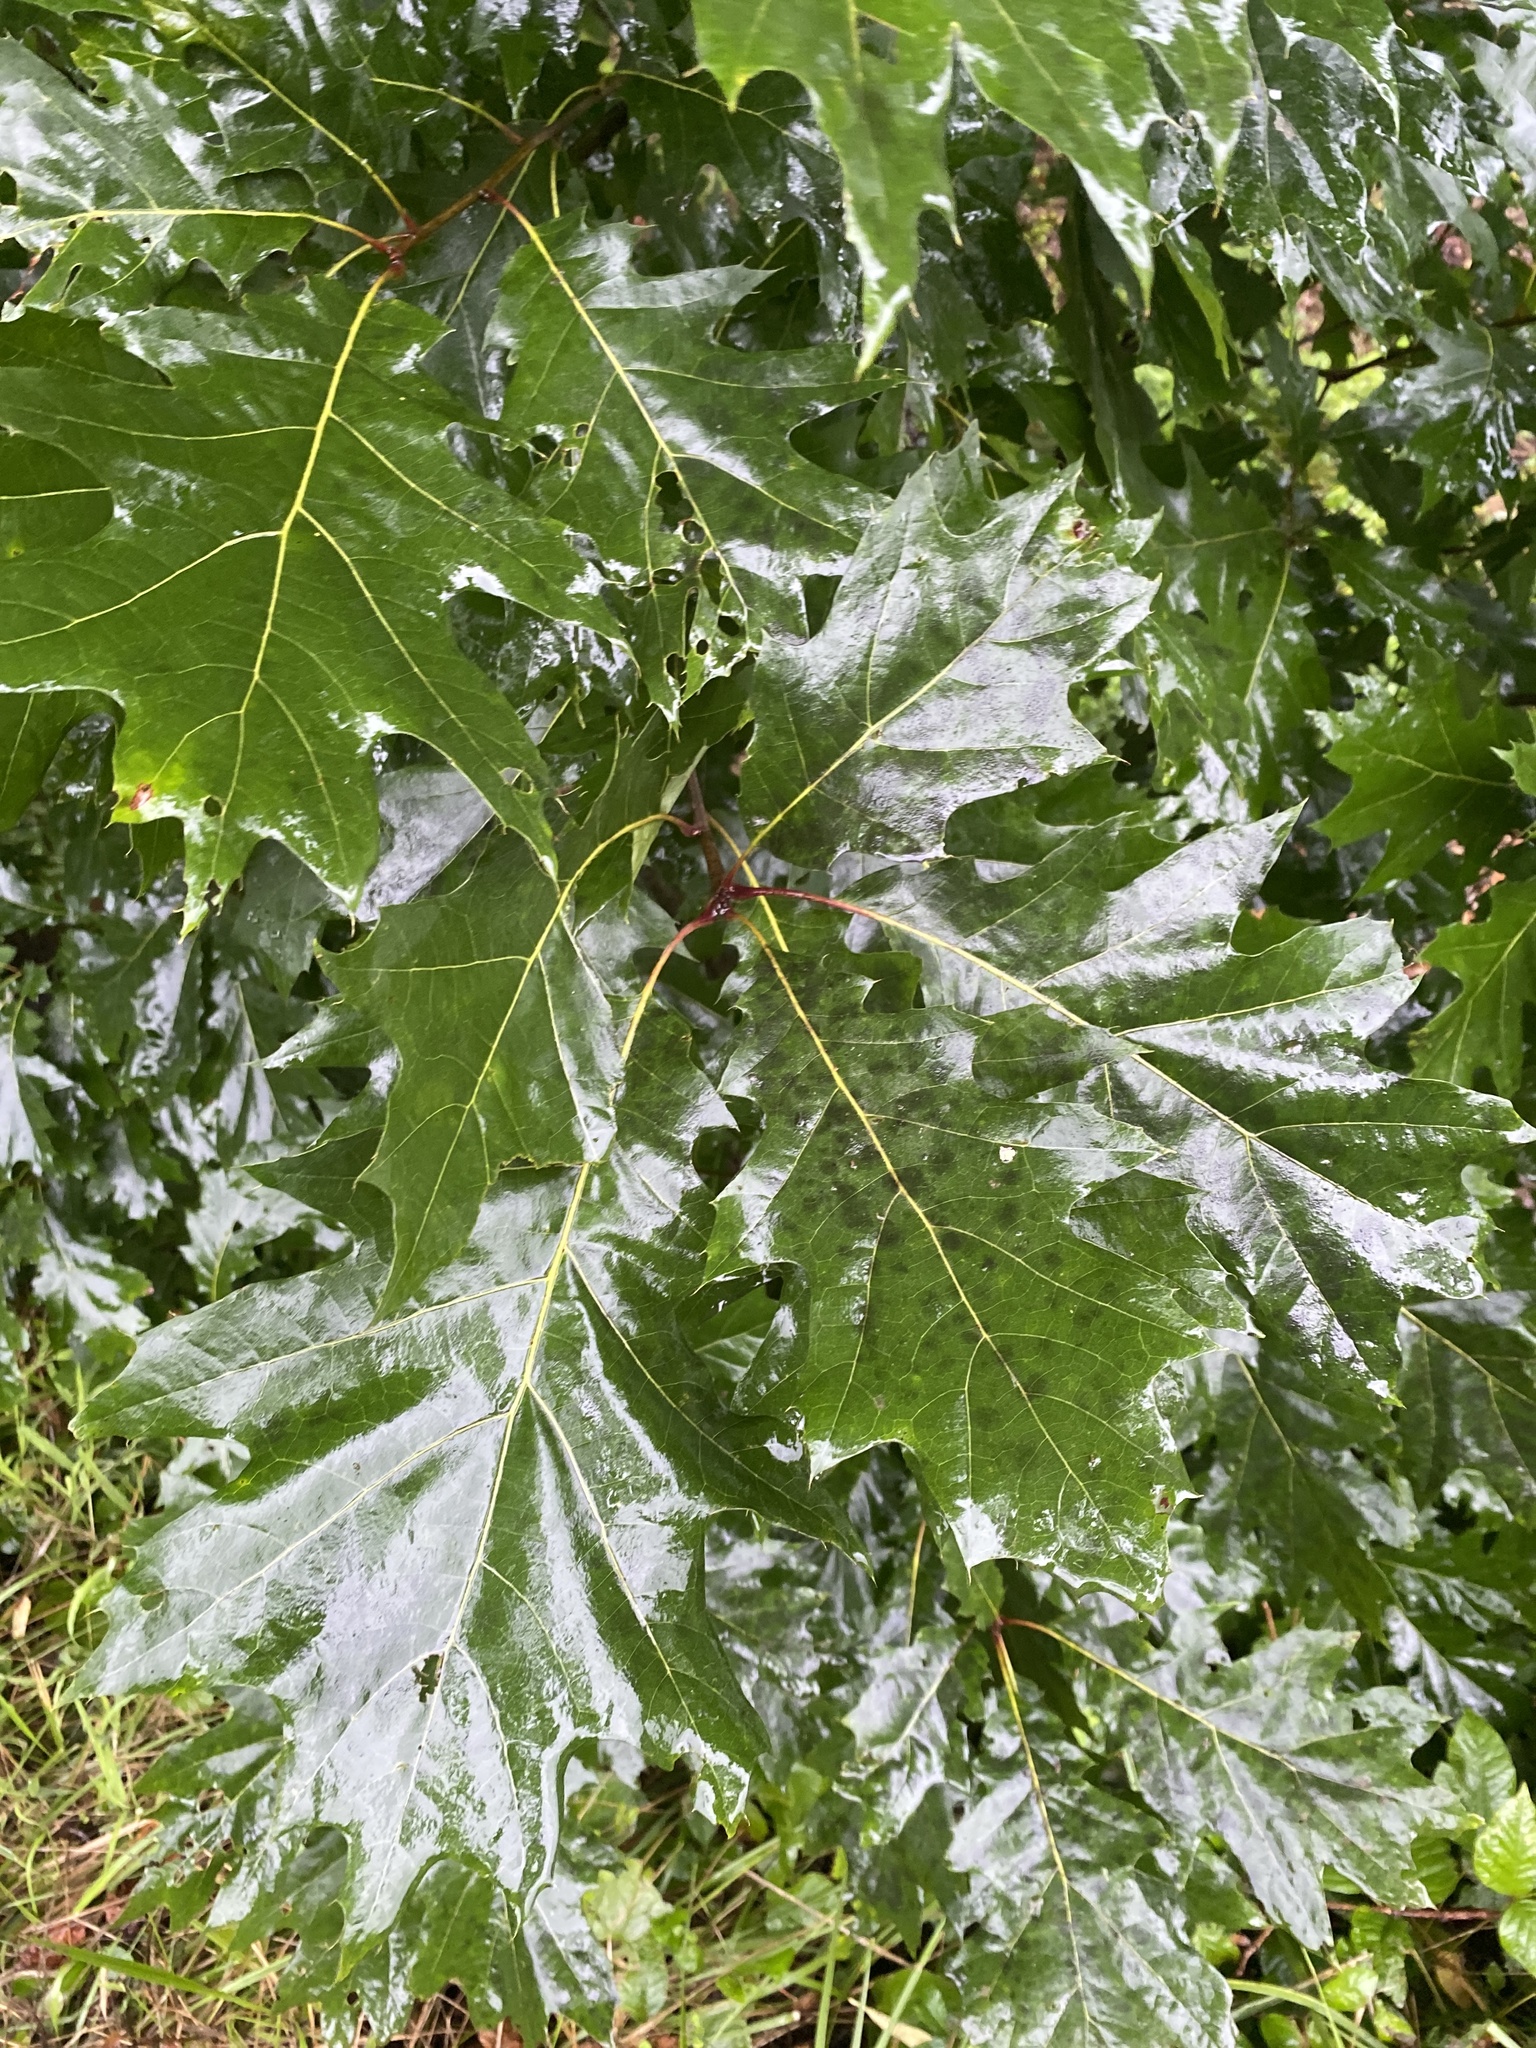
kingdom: Plantae
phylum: Tracheophyta
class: Magnoliopsida
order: Fagales
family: Fagaceae
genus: Quercus
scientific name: Quercus rubra
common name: Red oak
